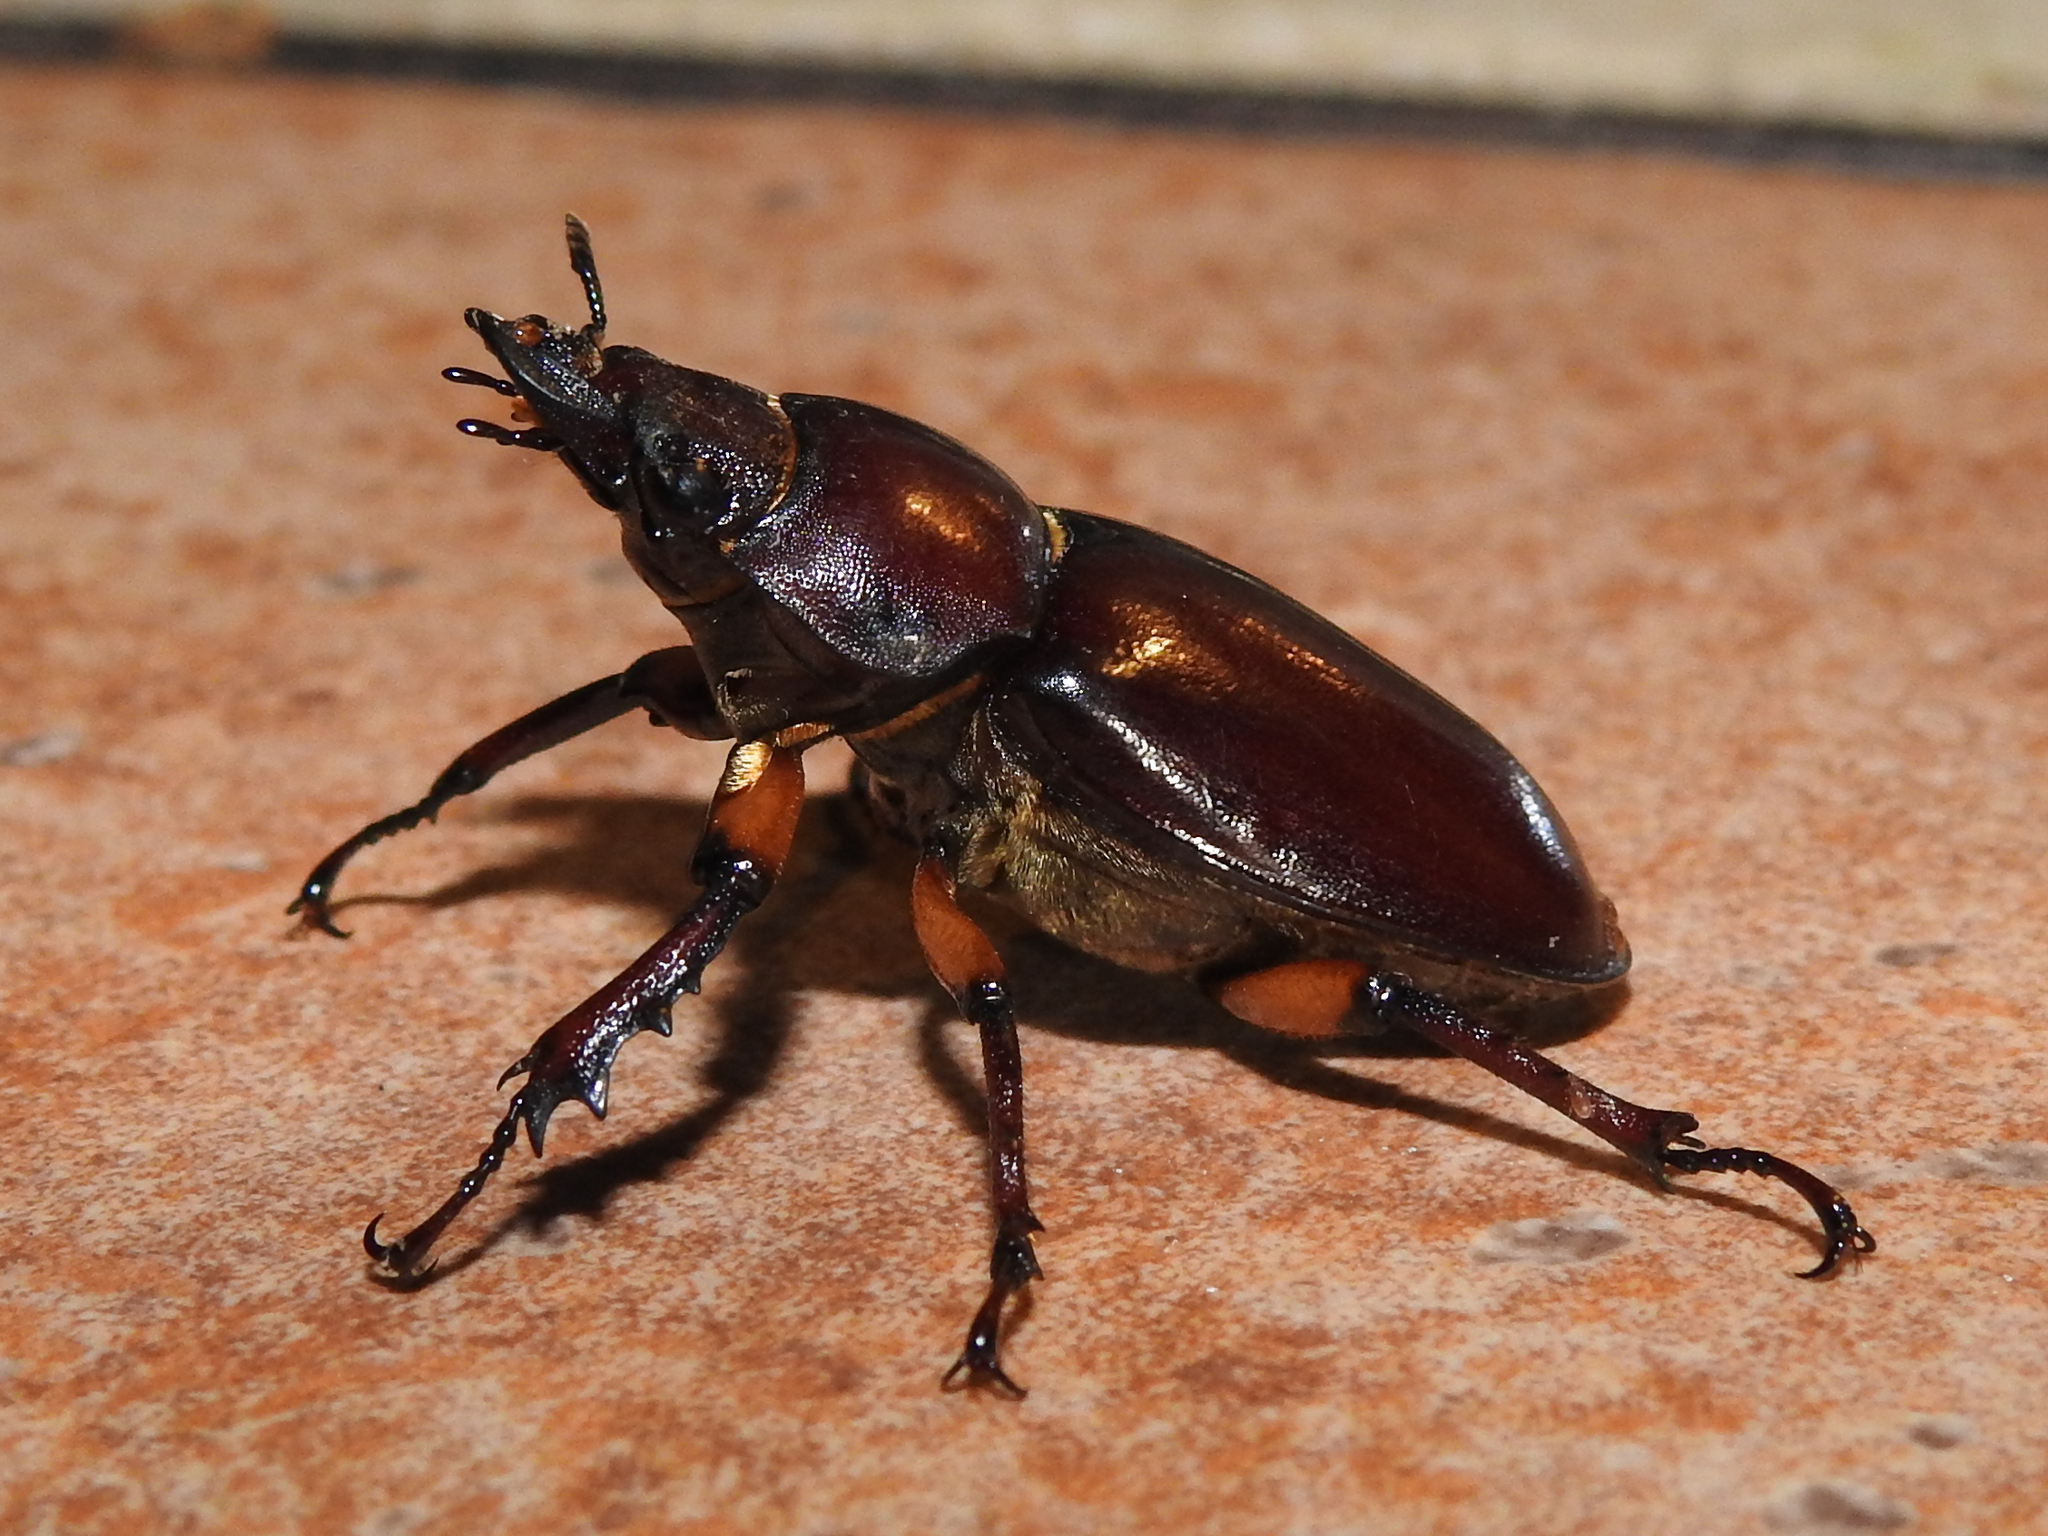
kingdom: Animalia
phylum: Arthropoda
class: Insecta
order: Coleoptera
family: Lucanidae
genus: Lucanus
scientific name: Lucanus capreolus
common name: Stag beetle
